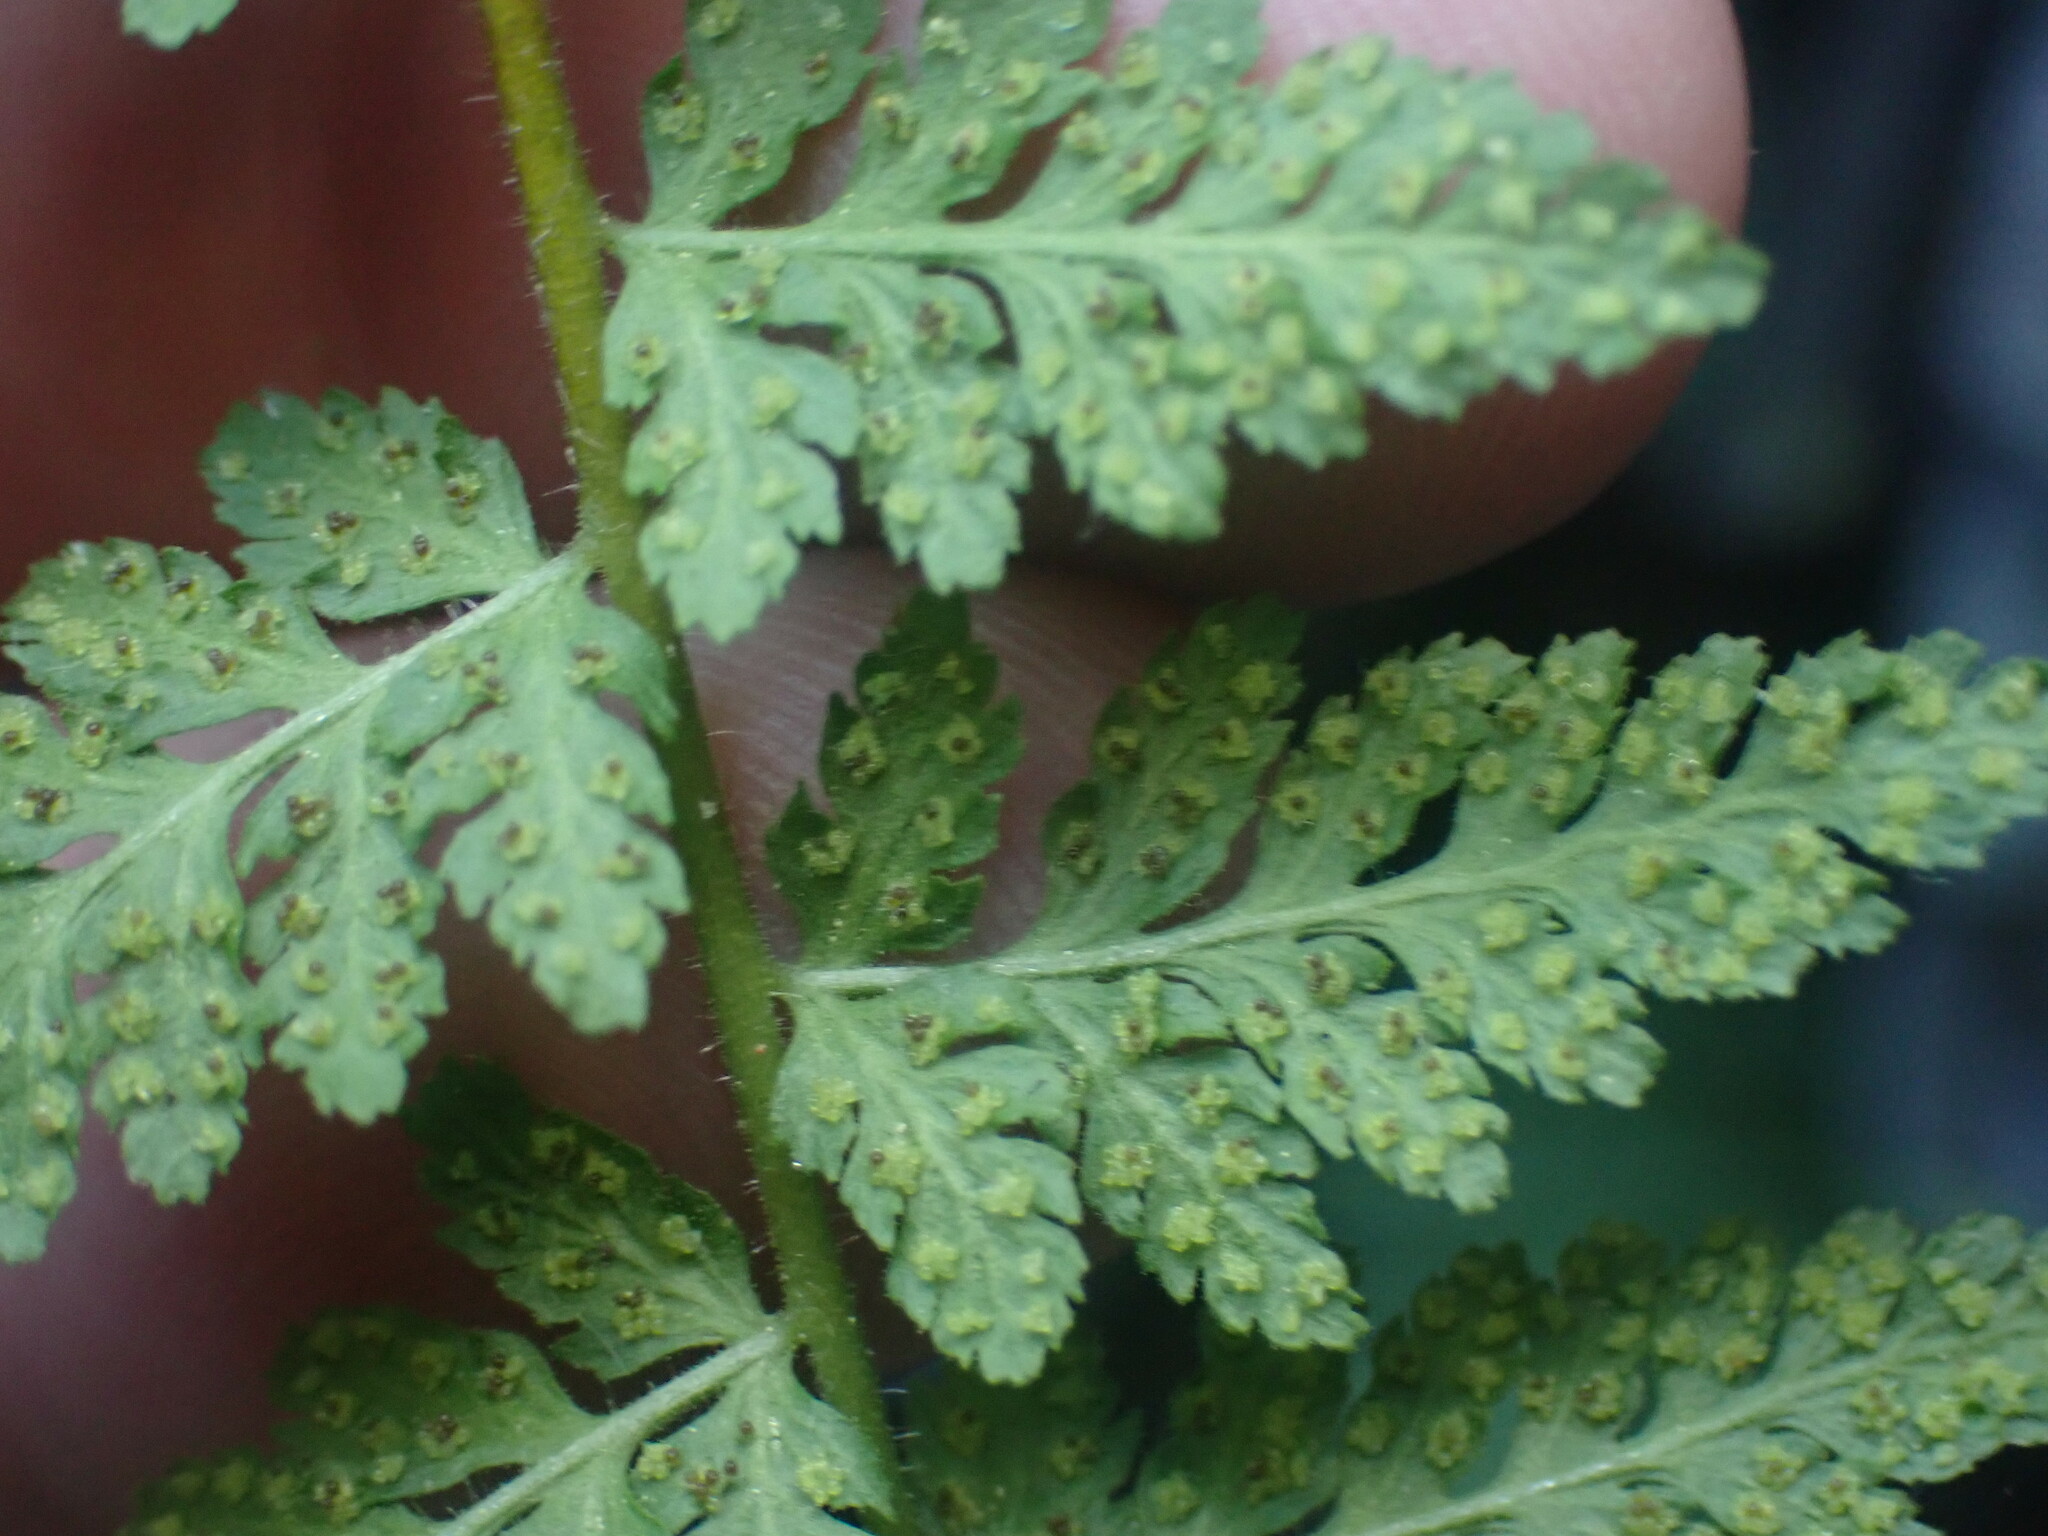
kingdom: Plantae
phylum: Tracheophyta
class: Polypodiopsida
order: Polypodiales
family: Woodsiaceae
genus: Physematium
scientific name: Physematium scopulinum
